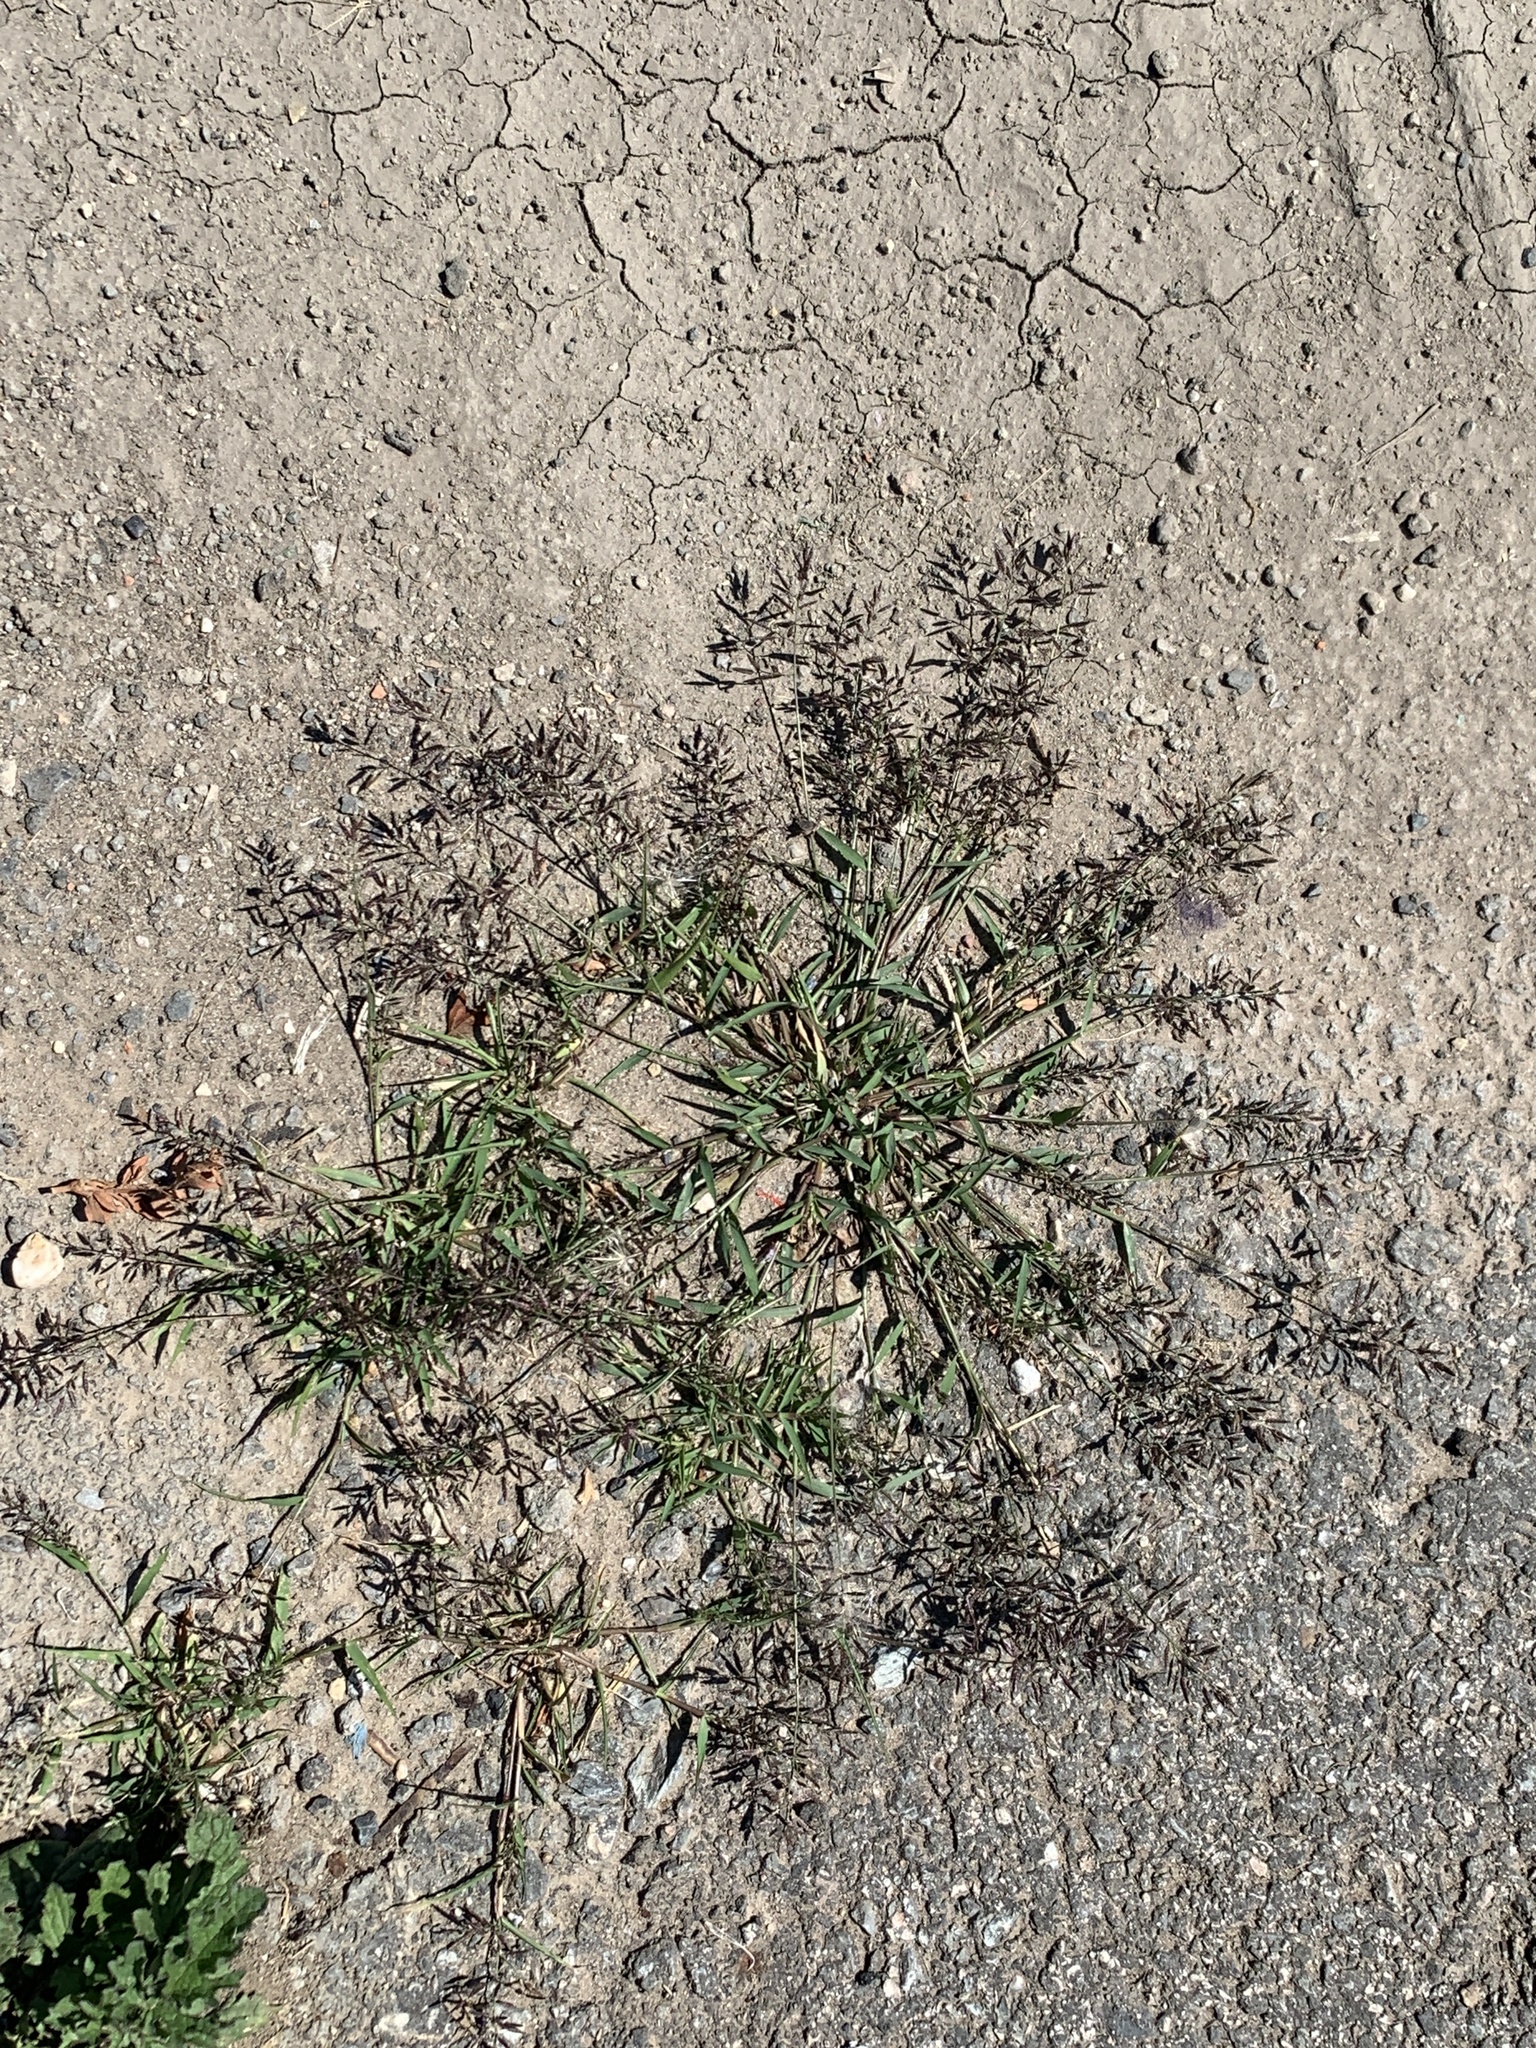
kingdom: Plantae
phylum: Tracheophyta
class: Liliopsida
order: Poales
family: Poaceae
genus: Eragrostis
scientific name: Eragrostis minor
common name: Small love-grass
